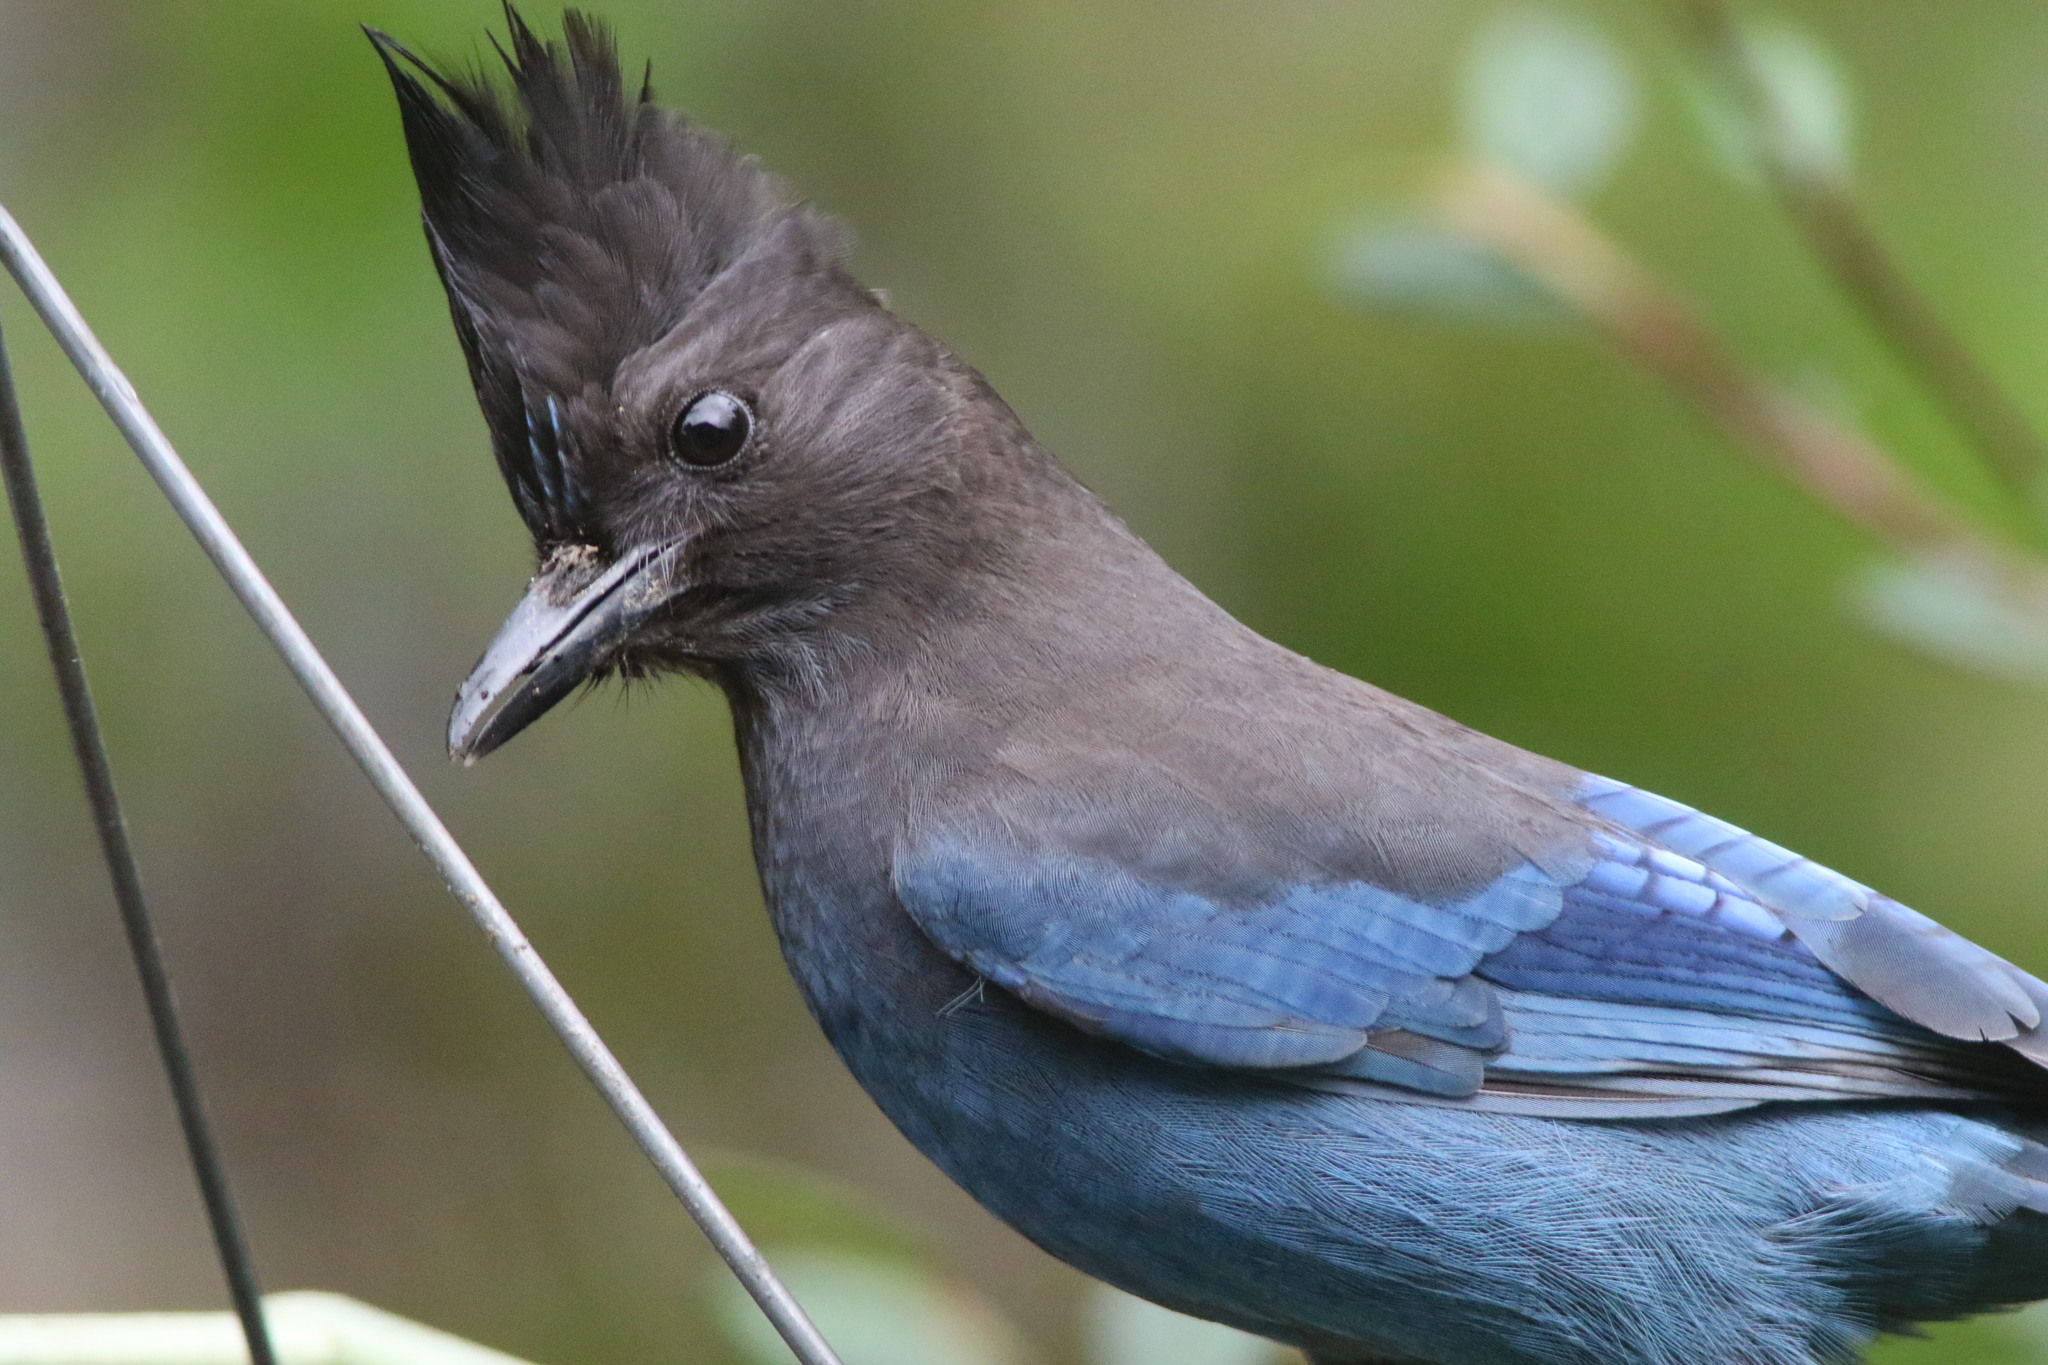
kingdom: Animalia
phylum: Chordata
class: Aves
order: Passeriformes
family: Corvidae
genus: Cyanocitta
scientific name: Cyanocitta stelleri
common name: Steller's jay
